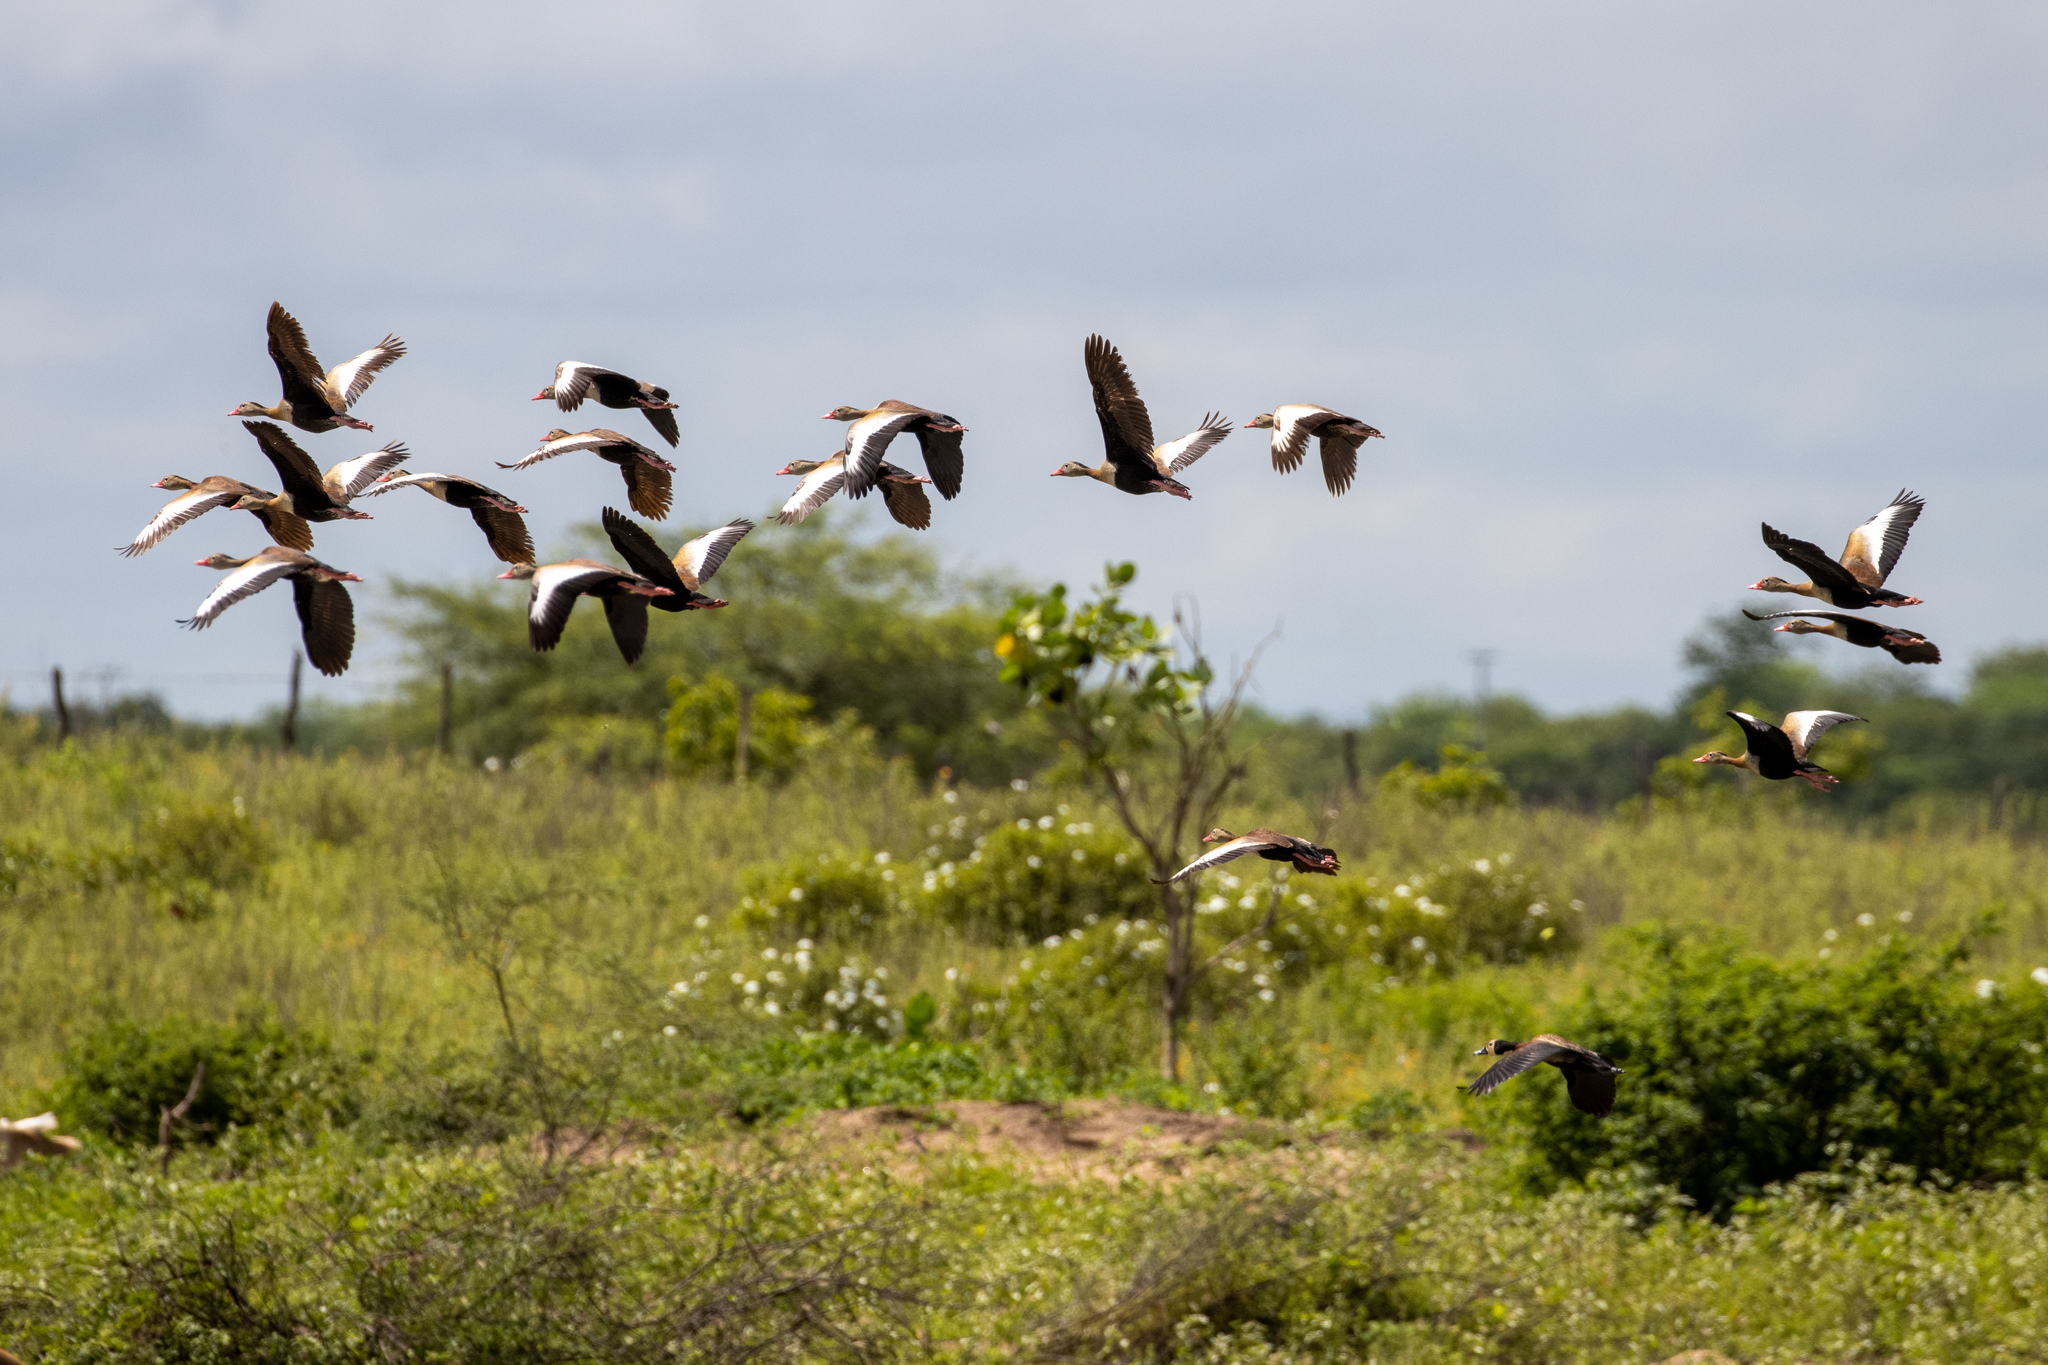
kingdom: Animalia
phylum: Chordata
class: Aves
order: Anseriformes
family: Anatidae
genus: Dendrocygna
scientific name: Dendrocygna autumnalis
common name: Black-bellied whistling duck
